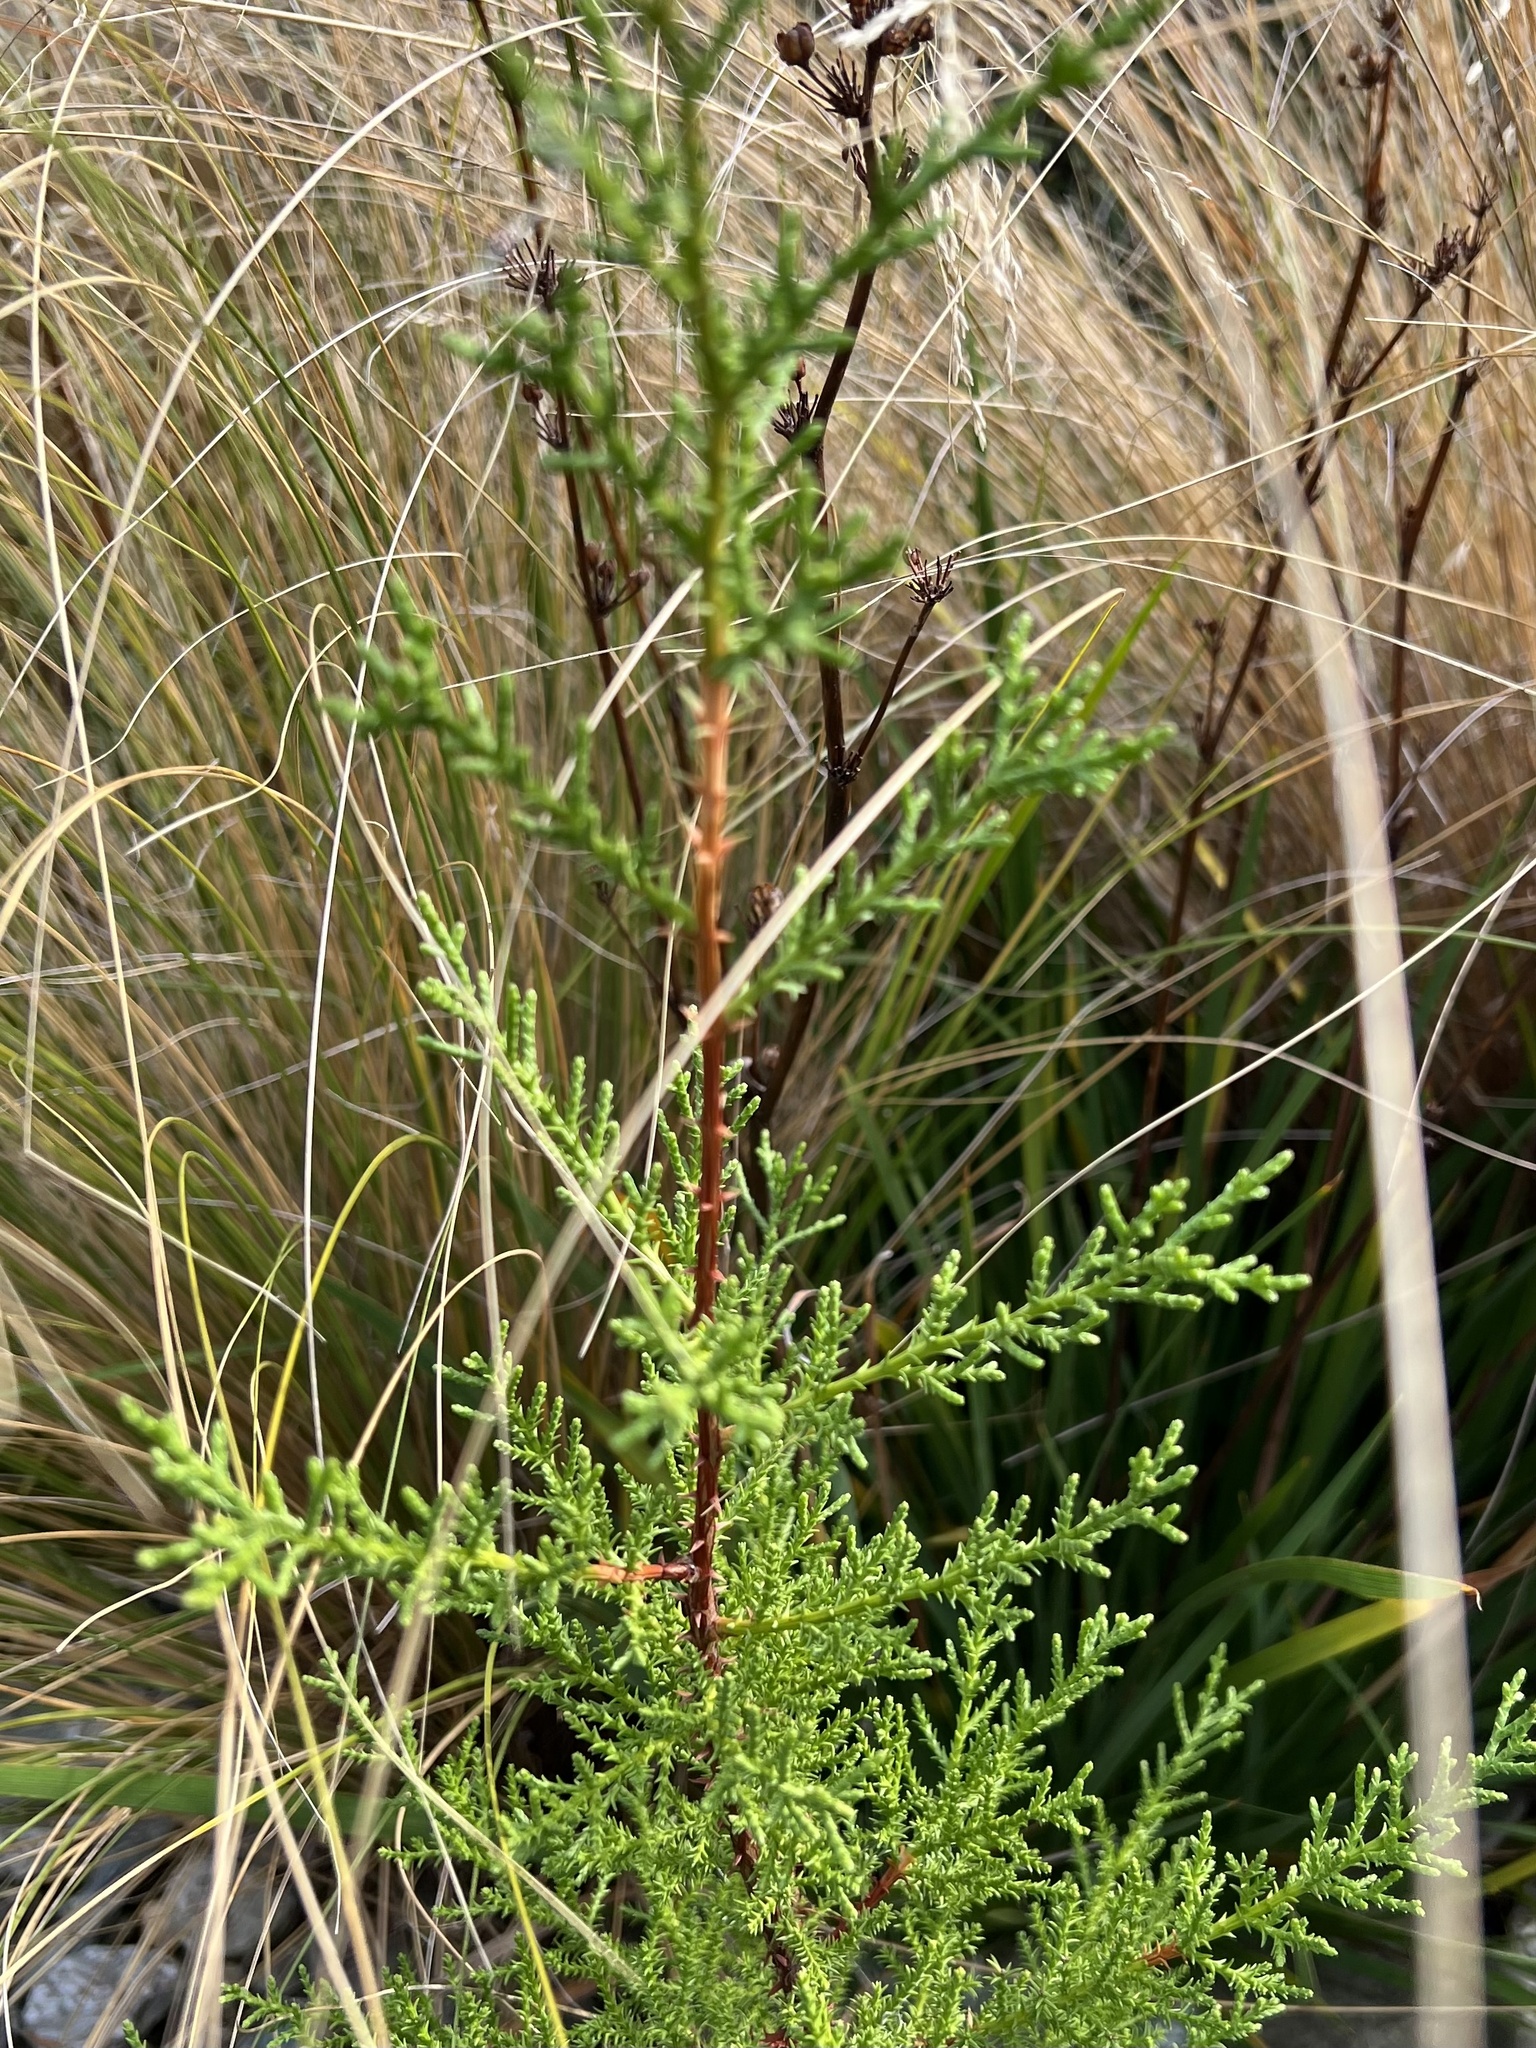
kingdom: Plantae
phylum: Tracheophyta
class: Pinopsida
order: Pinales
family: Cupressaceae
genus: Cupressus
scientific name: Cupressus macrocarpa
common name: Monterey cypress
